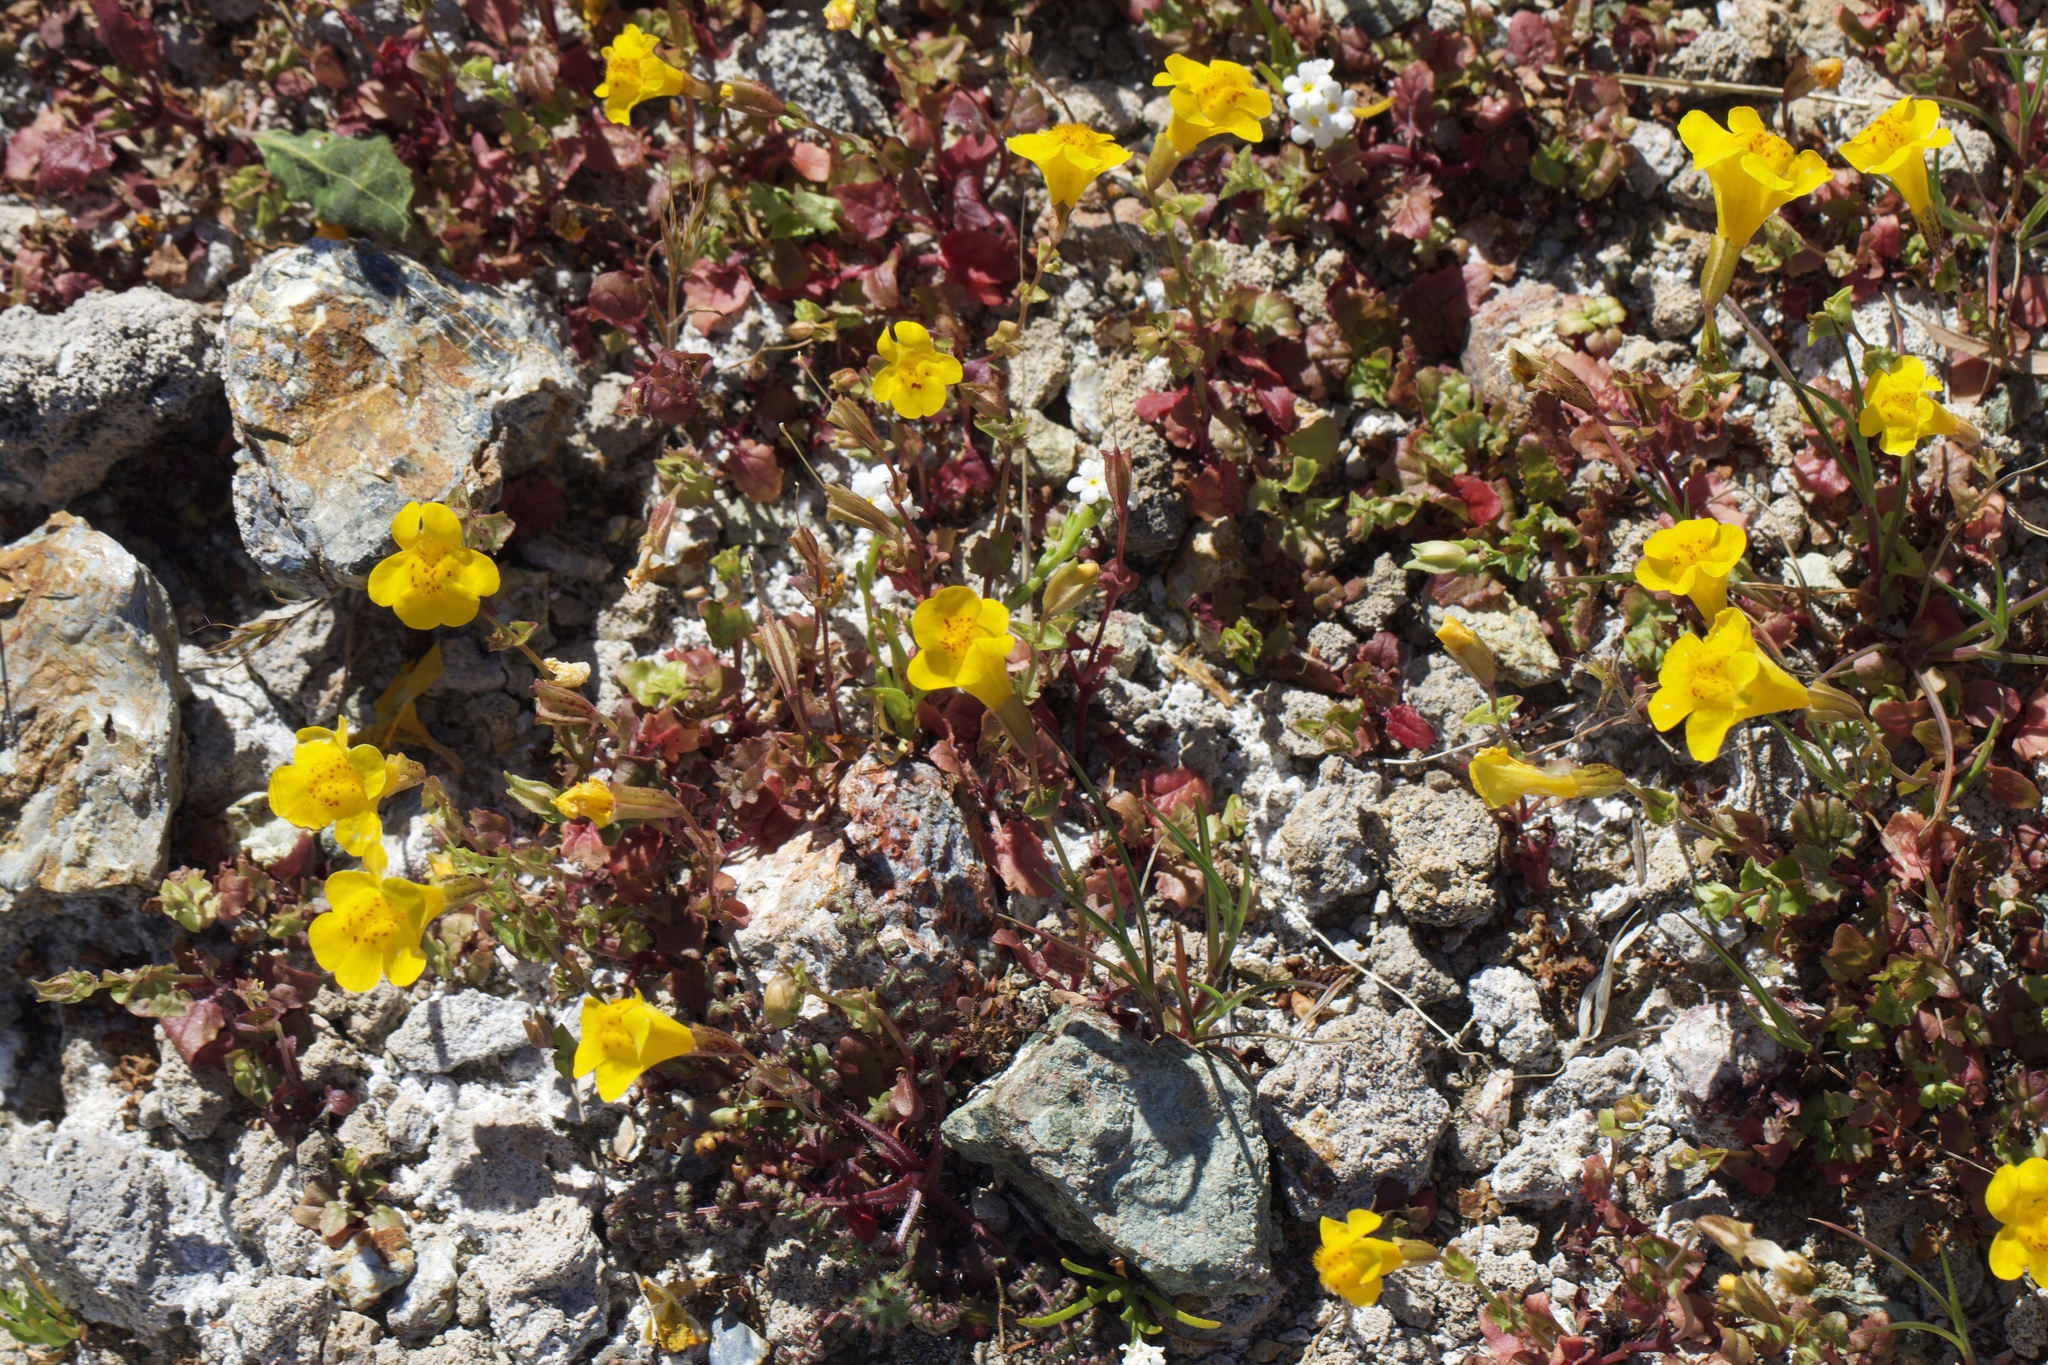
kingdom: Plantae
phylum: Tracheophyta
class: Magnoliopsida
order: Lamiales
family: Phrymaceae
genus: Erythranthe
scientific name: Erythranthe microphylla
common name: Bentham's monkeyflower
